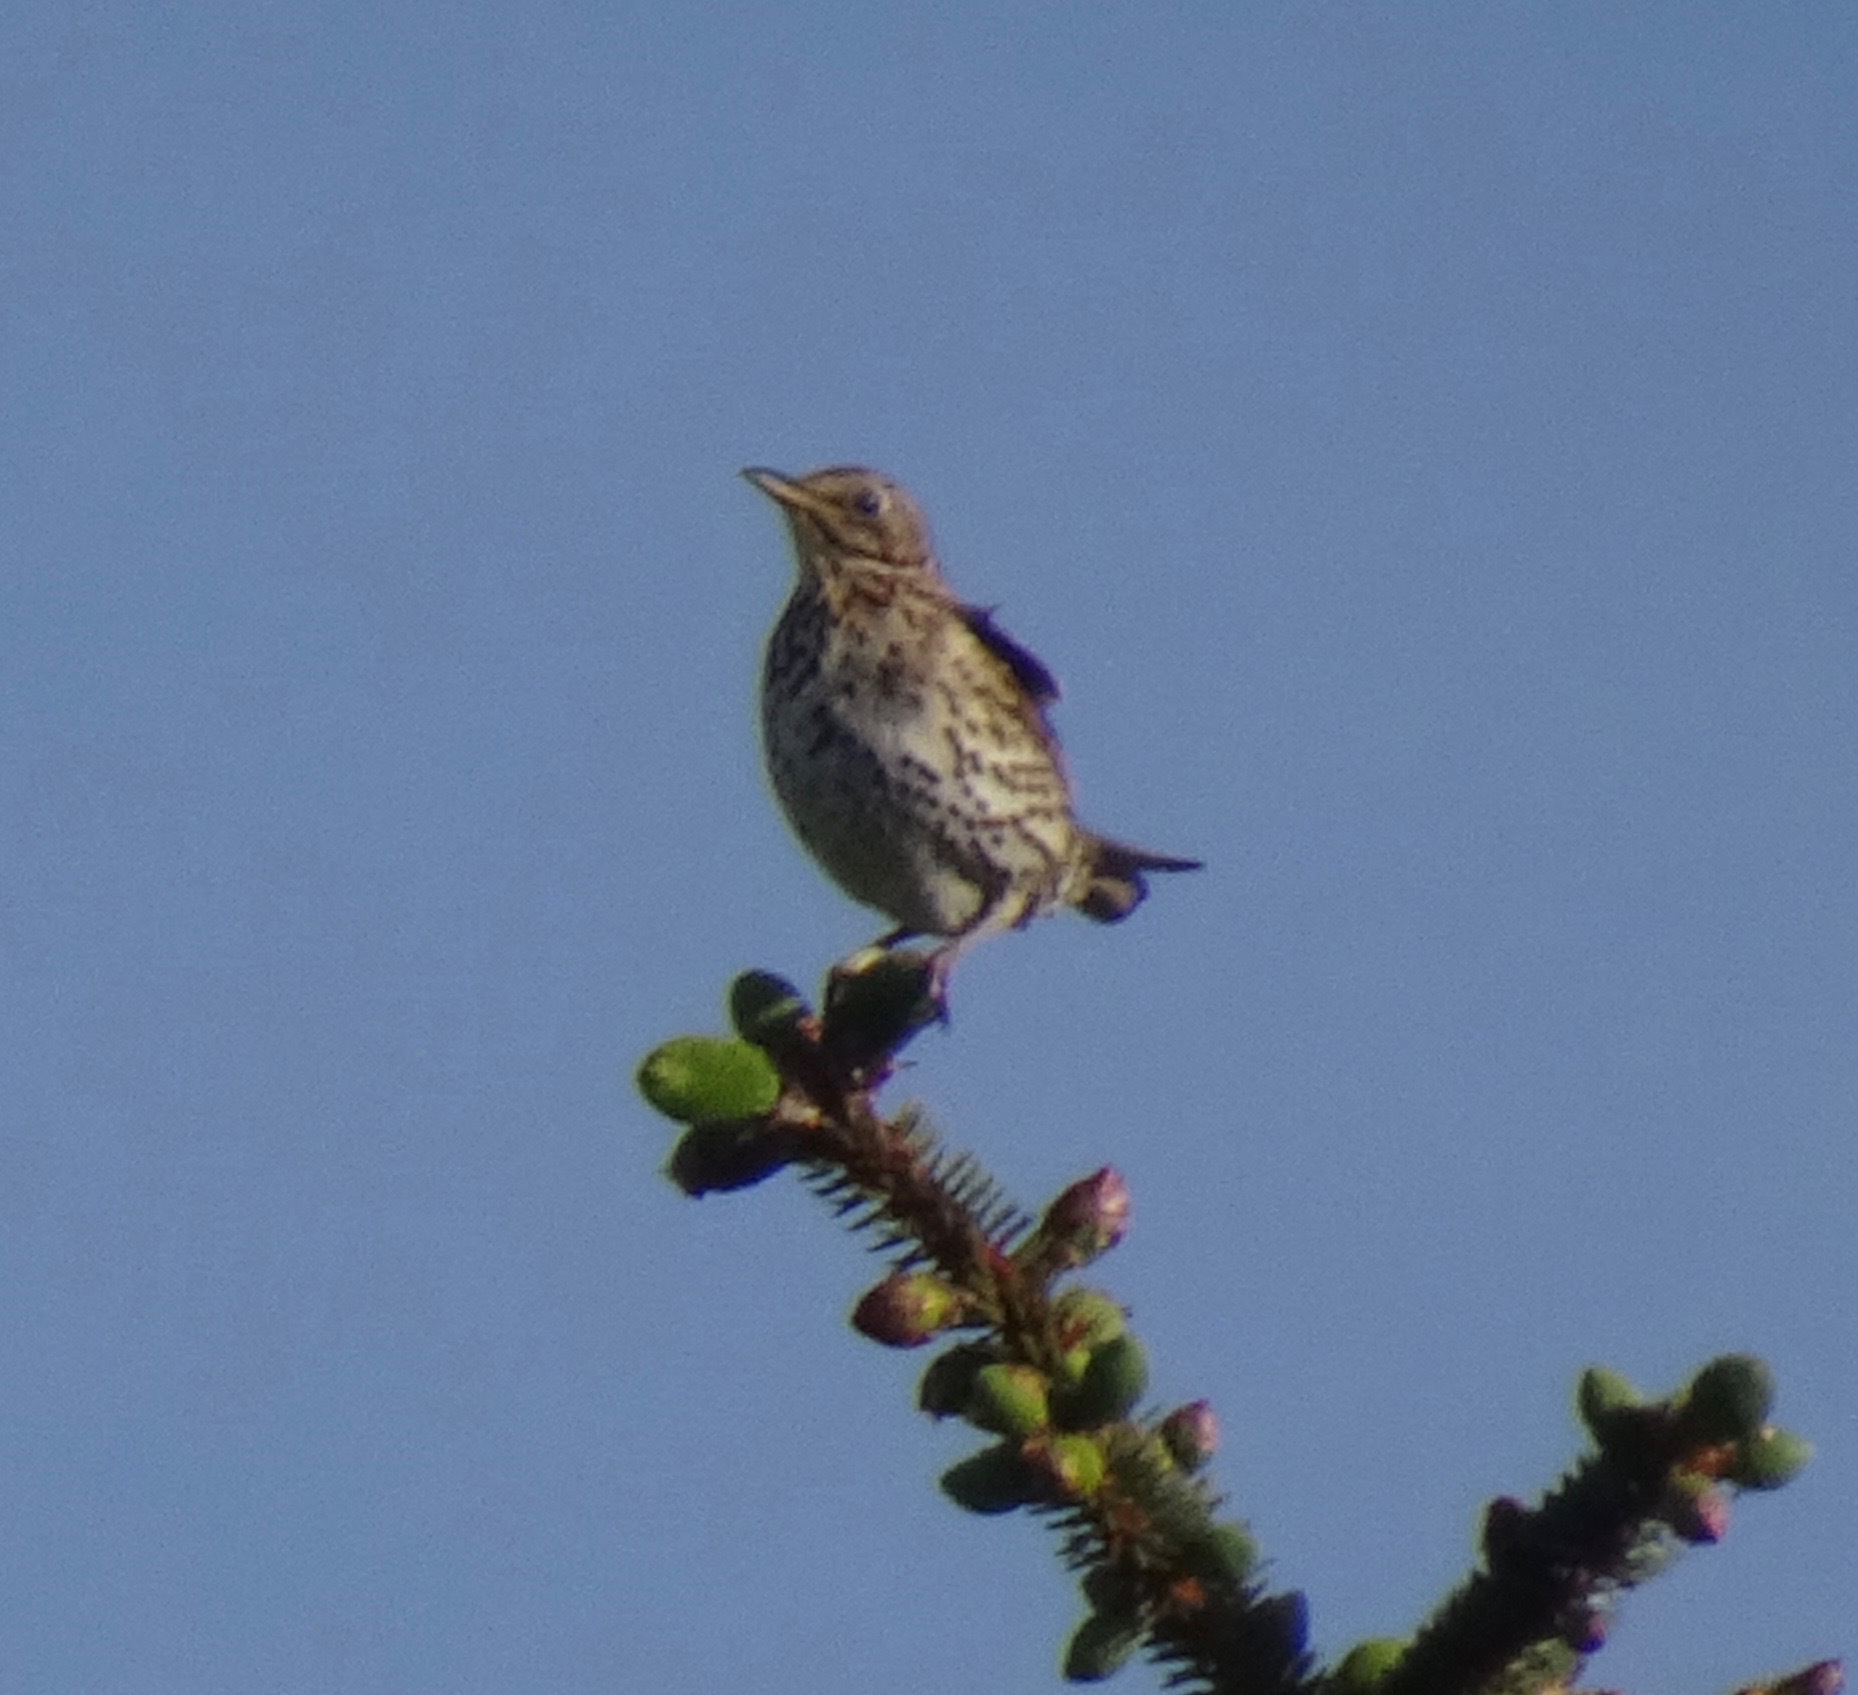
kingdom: Animalia
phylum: Chordata
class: Aves
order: Passeriformes
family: Turdidae
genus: Turdus
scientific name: Turdus philomelos
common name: Song thrush
